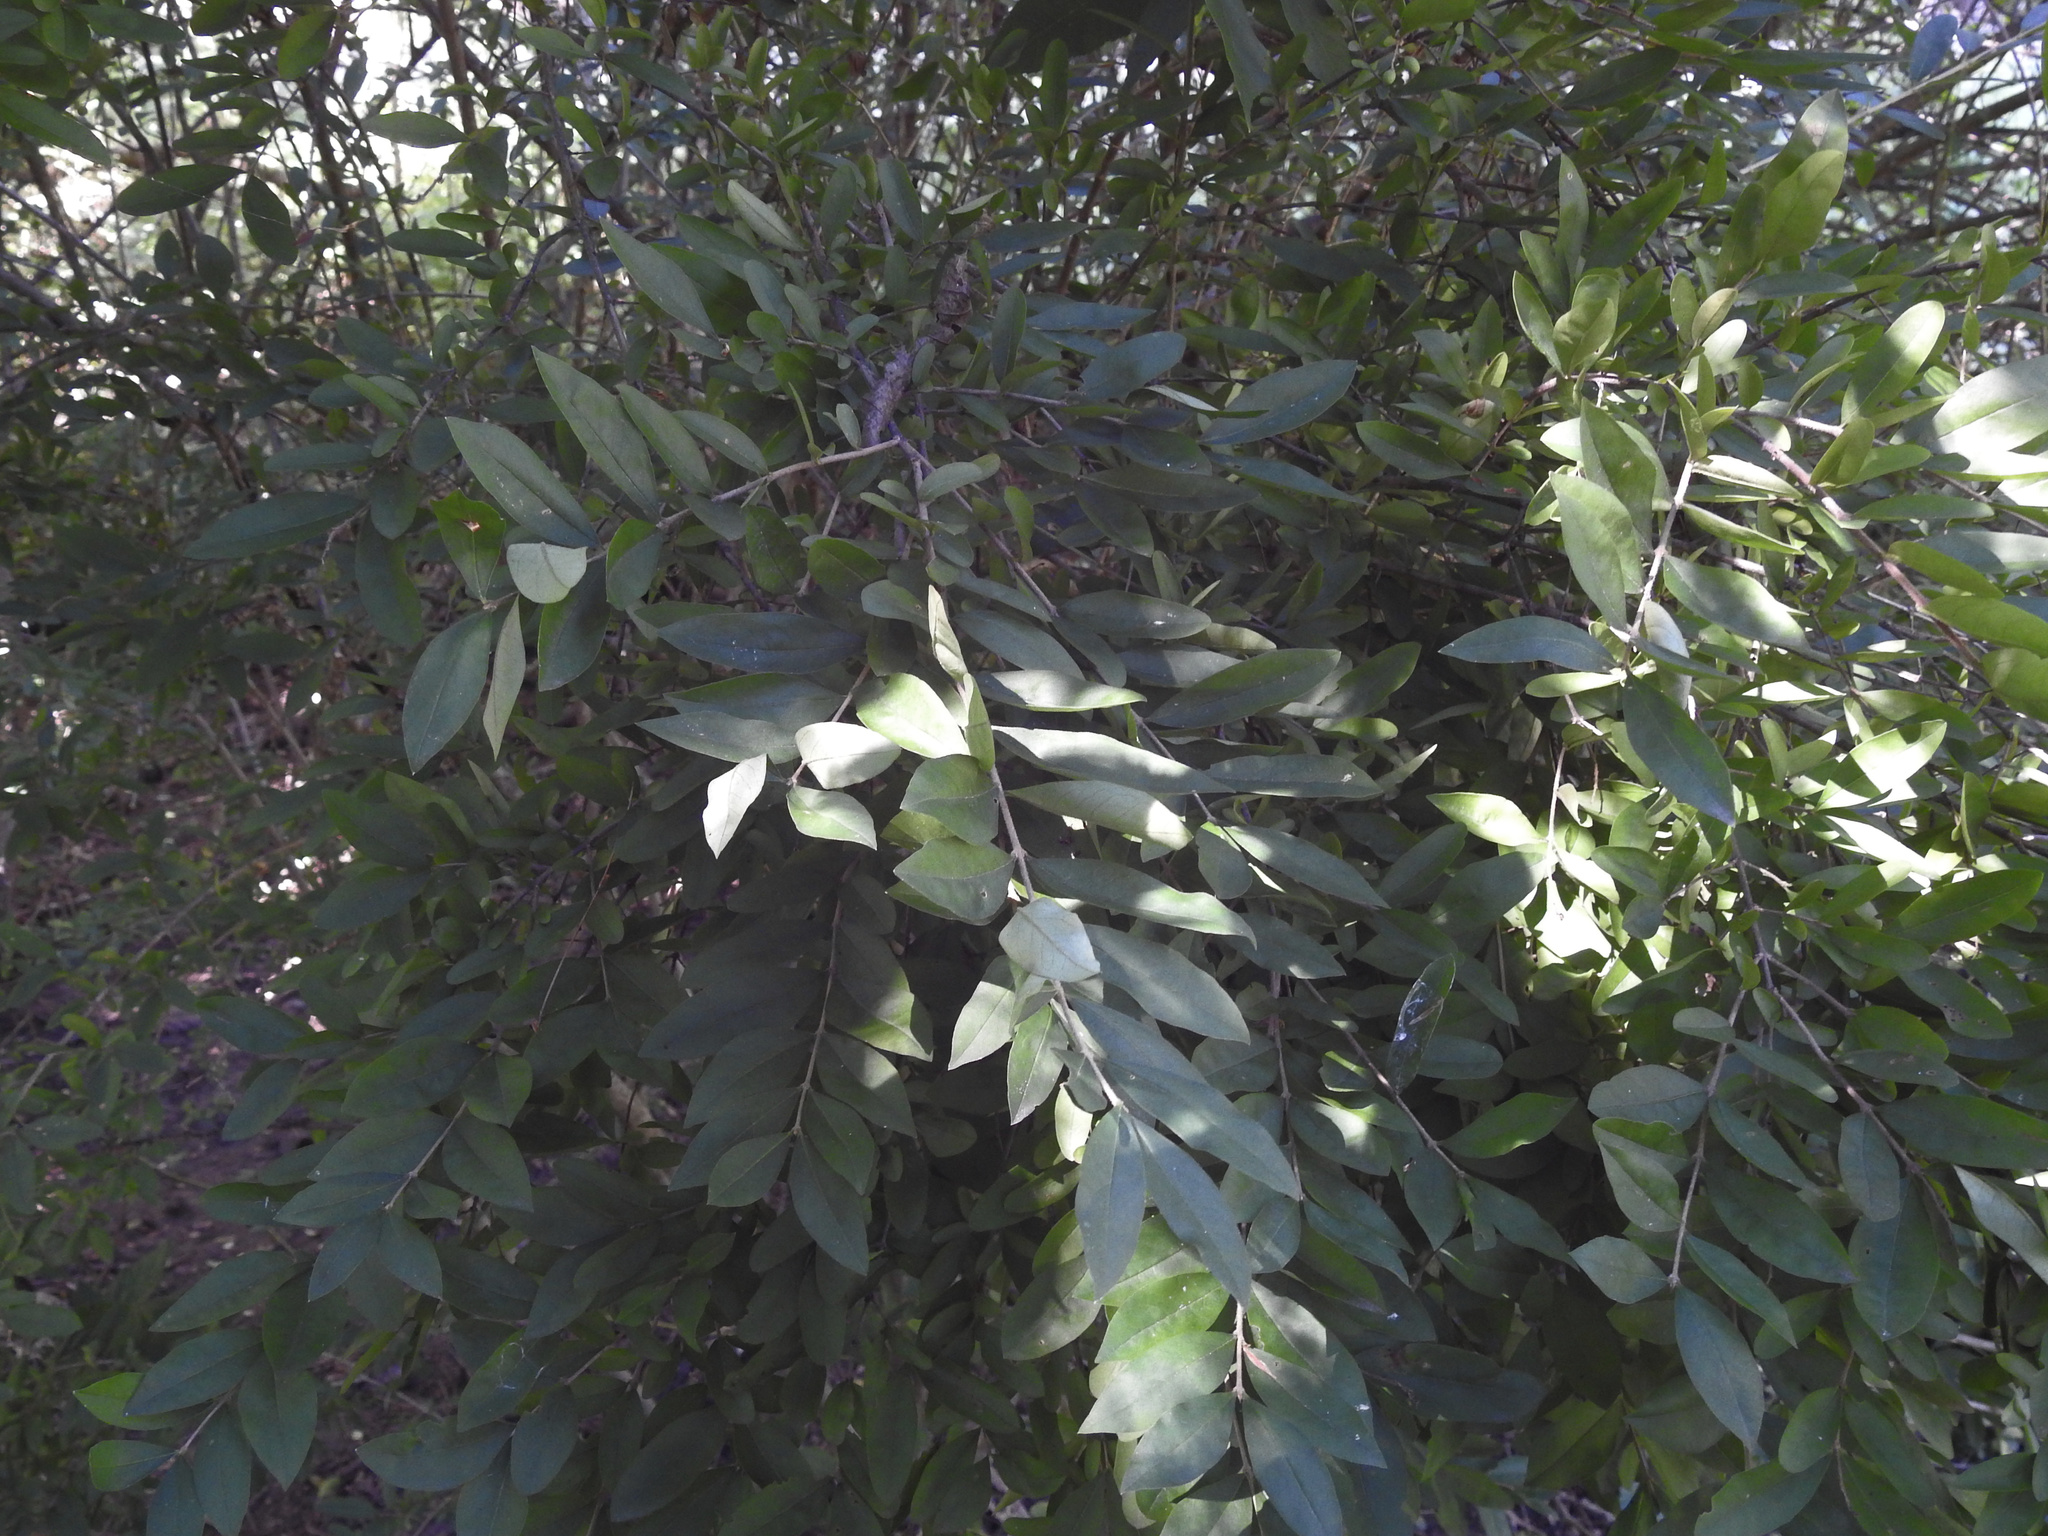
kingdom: Plantae
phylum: Tracheophyta
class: Magnoliopsida
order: Lamiales
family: Oleaceae
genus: Ligustrum
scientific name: Ligustrum
